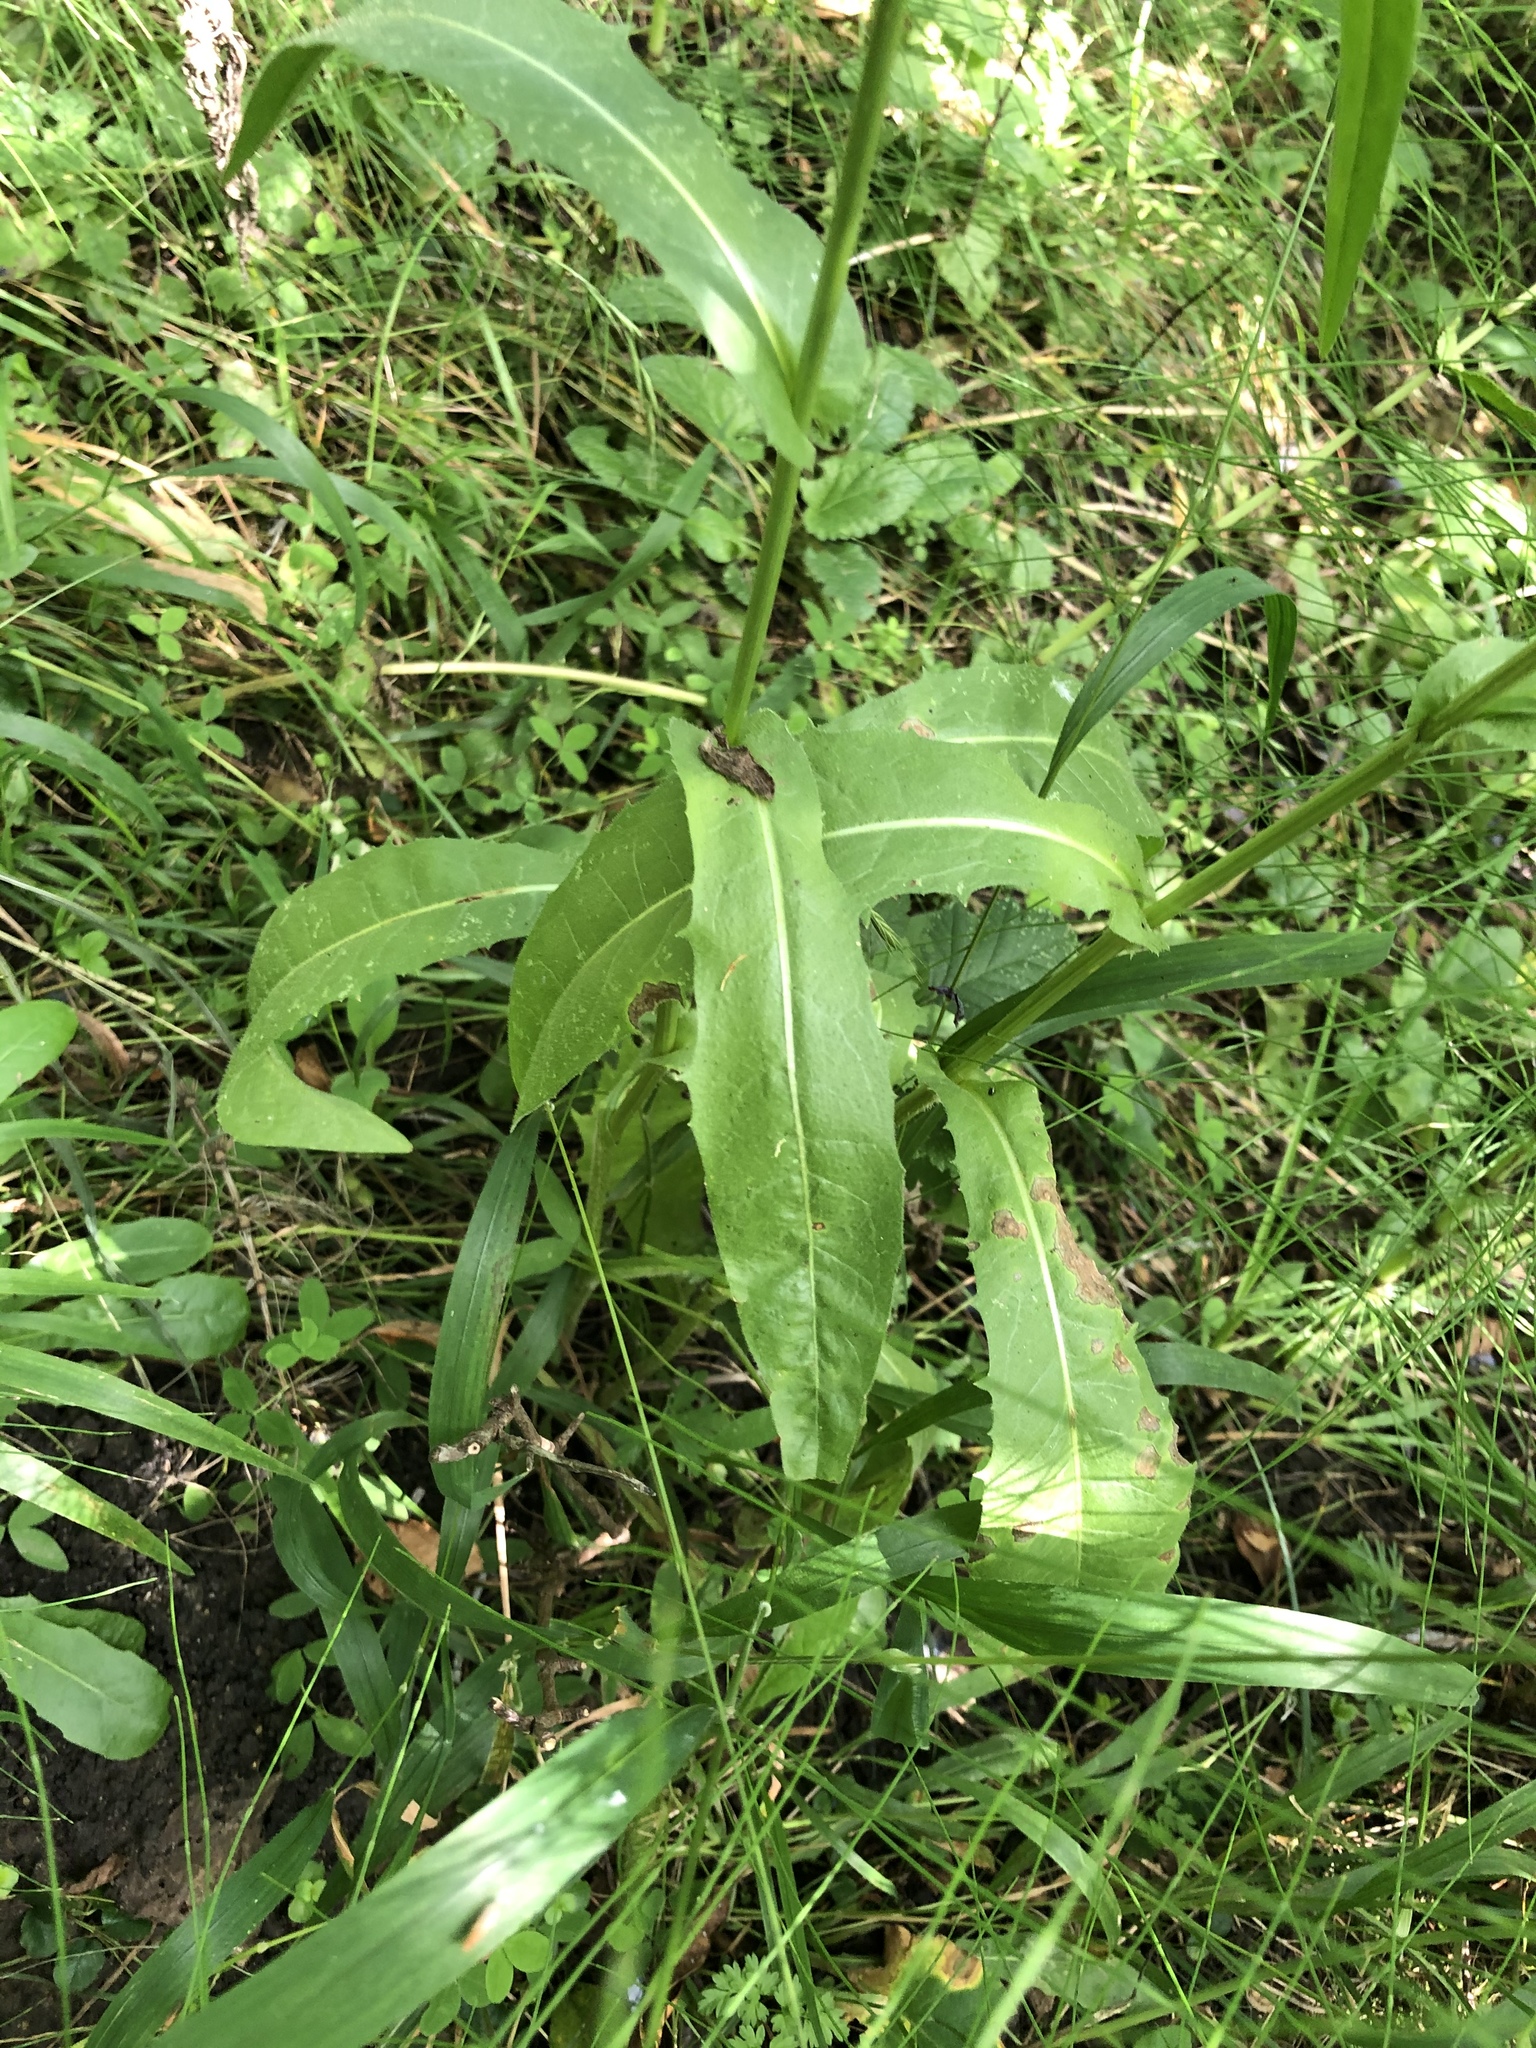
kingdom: Plantae
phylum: Tracheophyta
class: Magnoliopsida
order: Asterales
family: Asteraceae
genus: Cichorium
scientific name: Cichorium intybus
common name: Chicory
